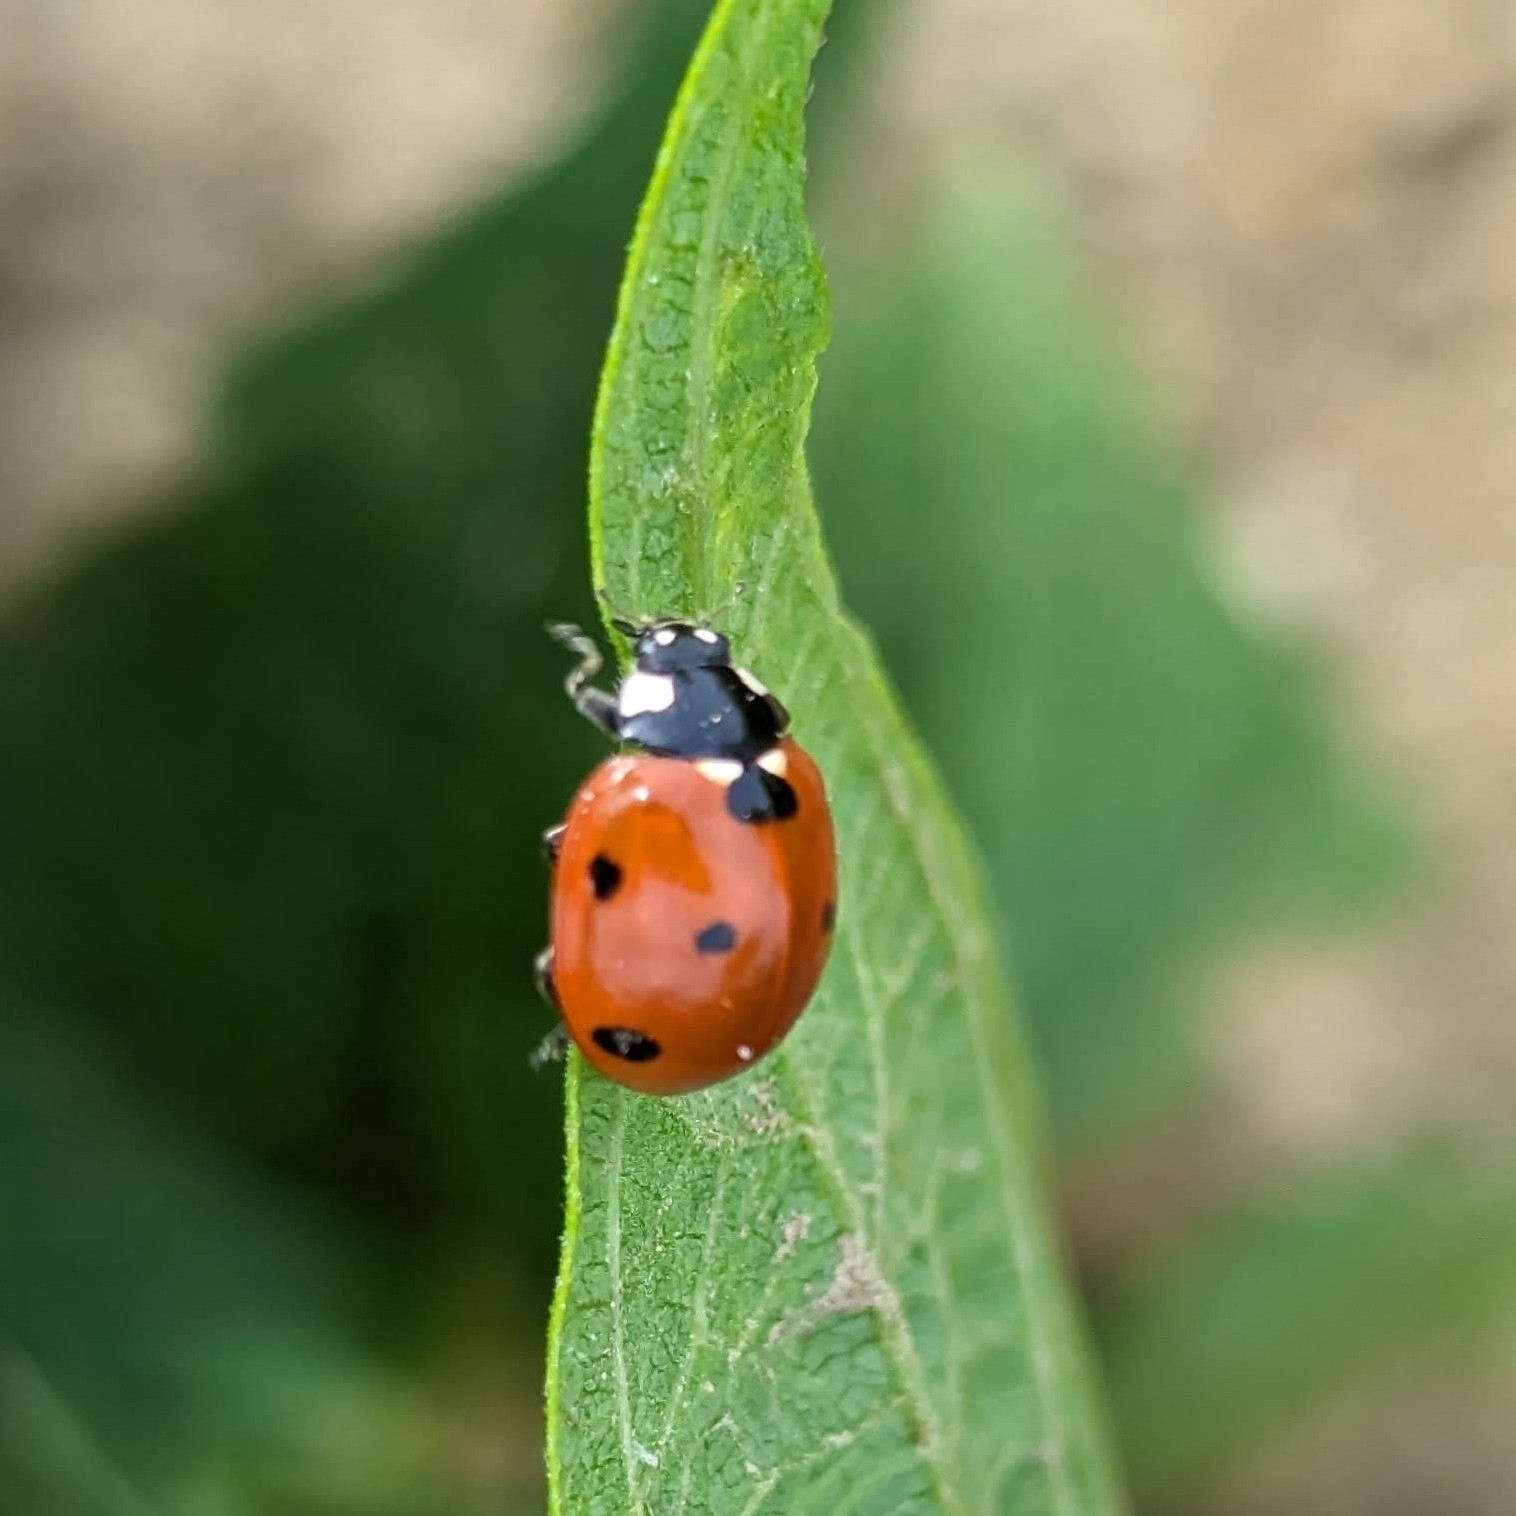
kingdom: Animalia
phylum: Arthropoda
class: Insecta
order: Coleoptera
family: Coccinellidae
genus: Coccinella
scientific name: Coccinella septempunctata
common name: Sevenspotted lady beetle
